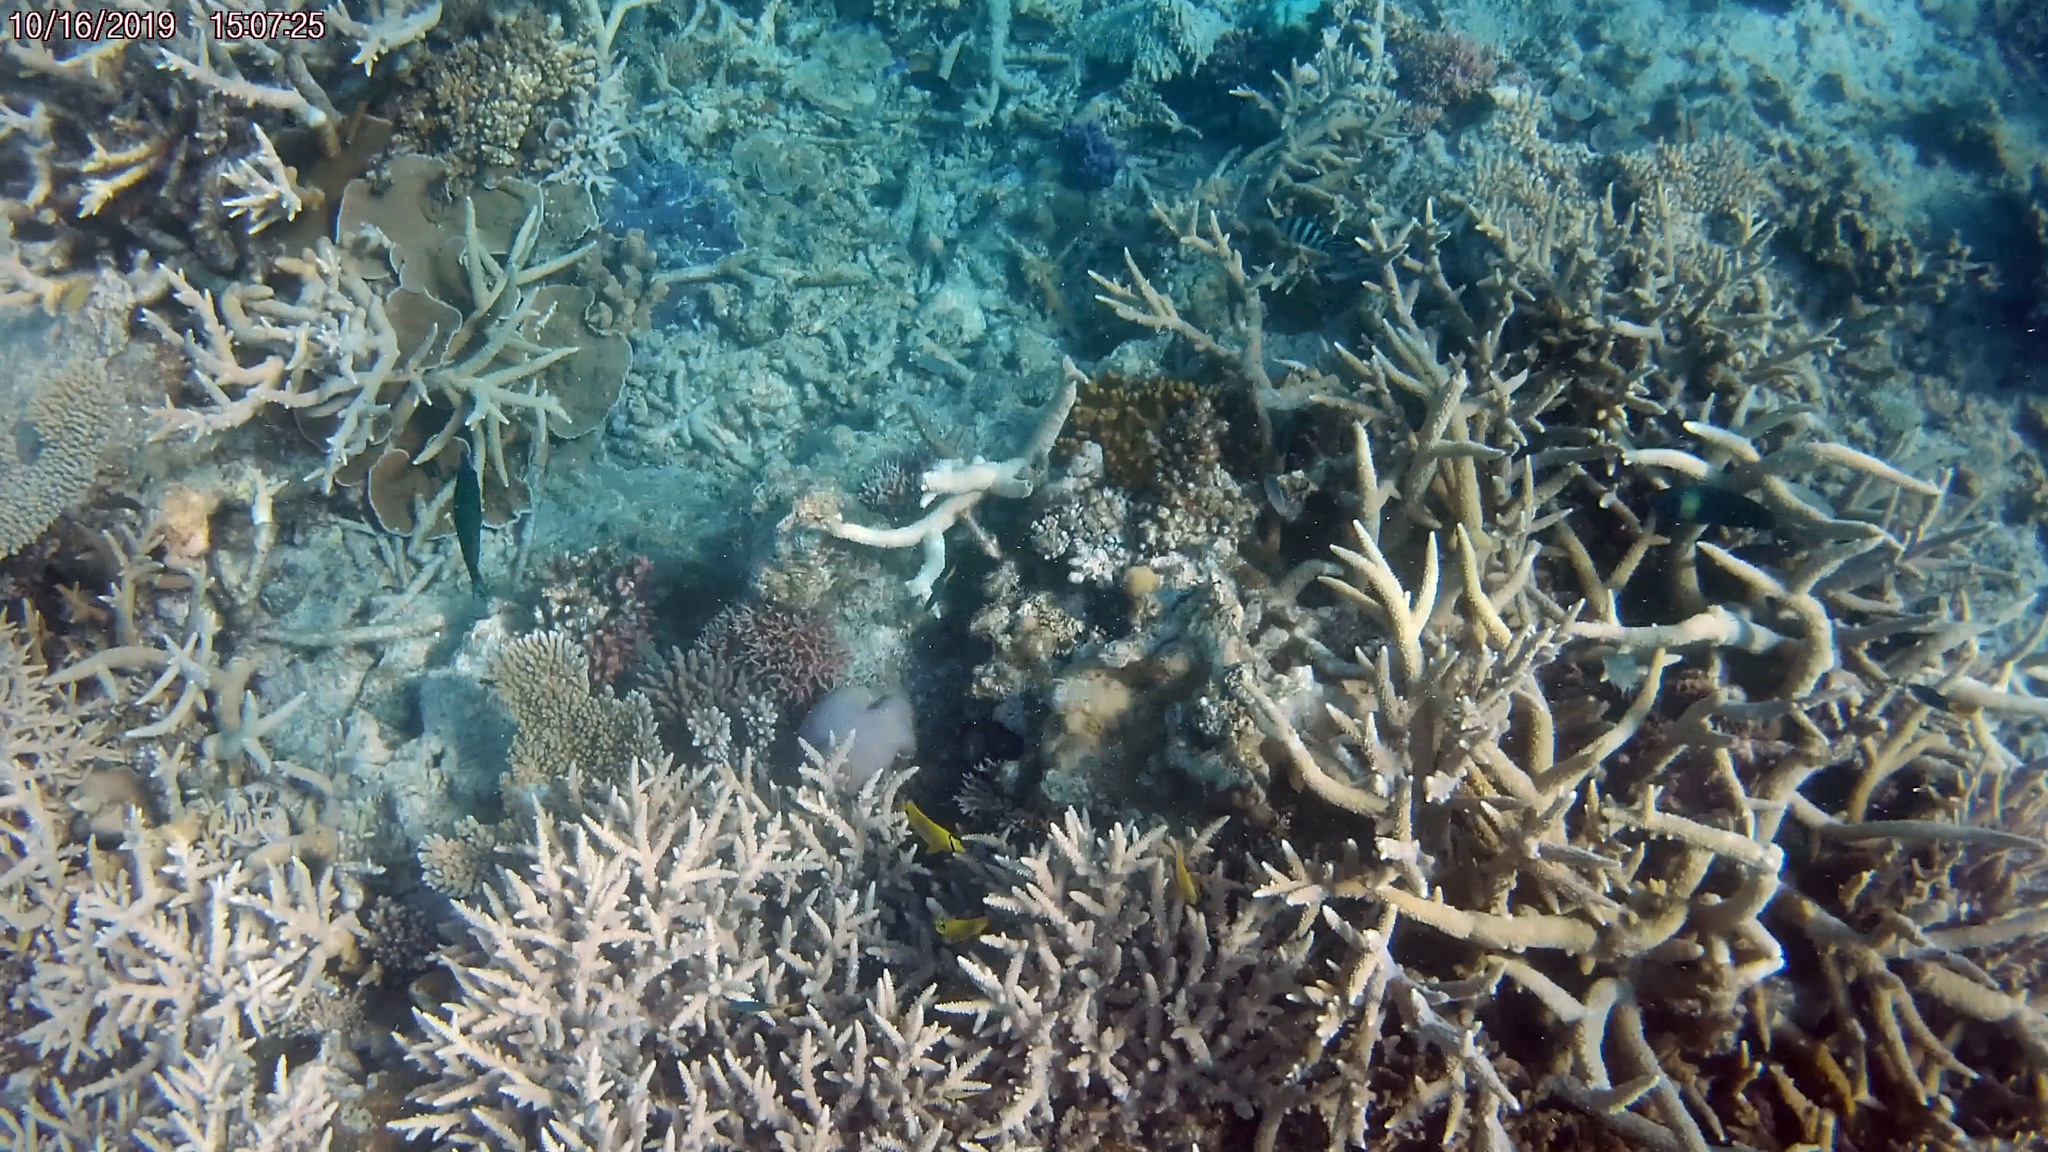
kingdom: Animalia
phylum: Chordata
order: Perciformes
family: Chaetodontidae
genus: Chaetodon
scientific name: Chaetodon plebeius
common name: Bluespot butterflyfish
